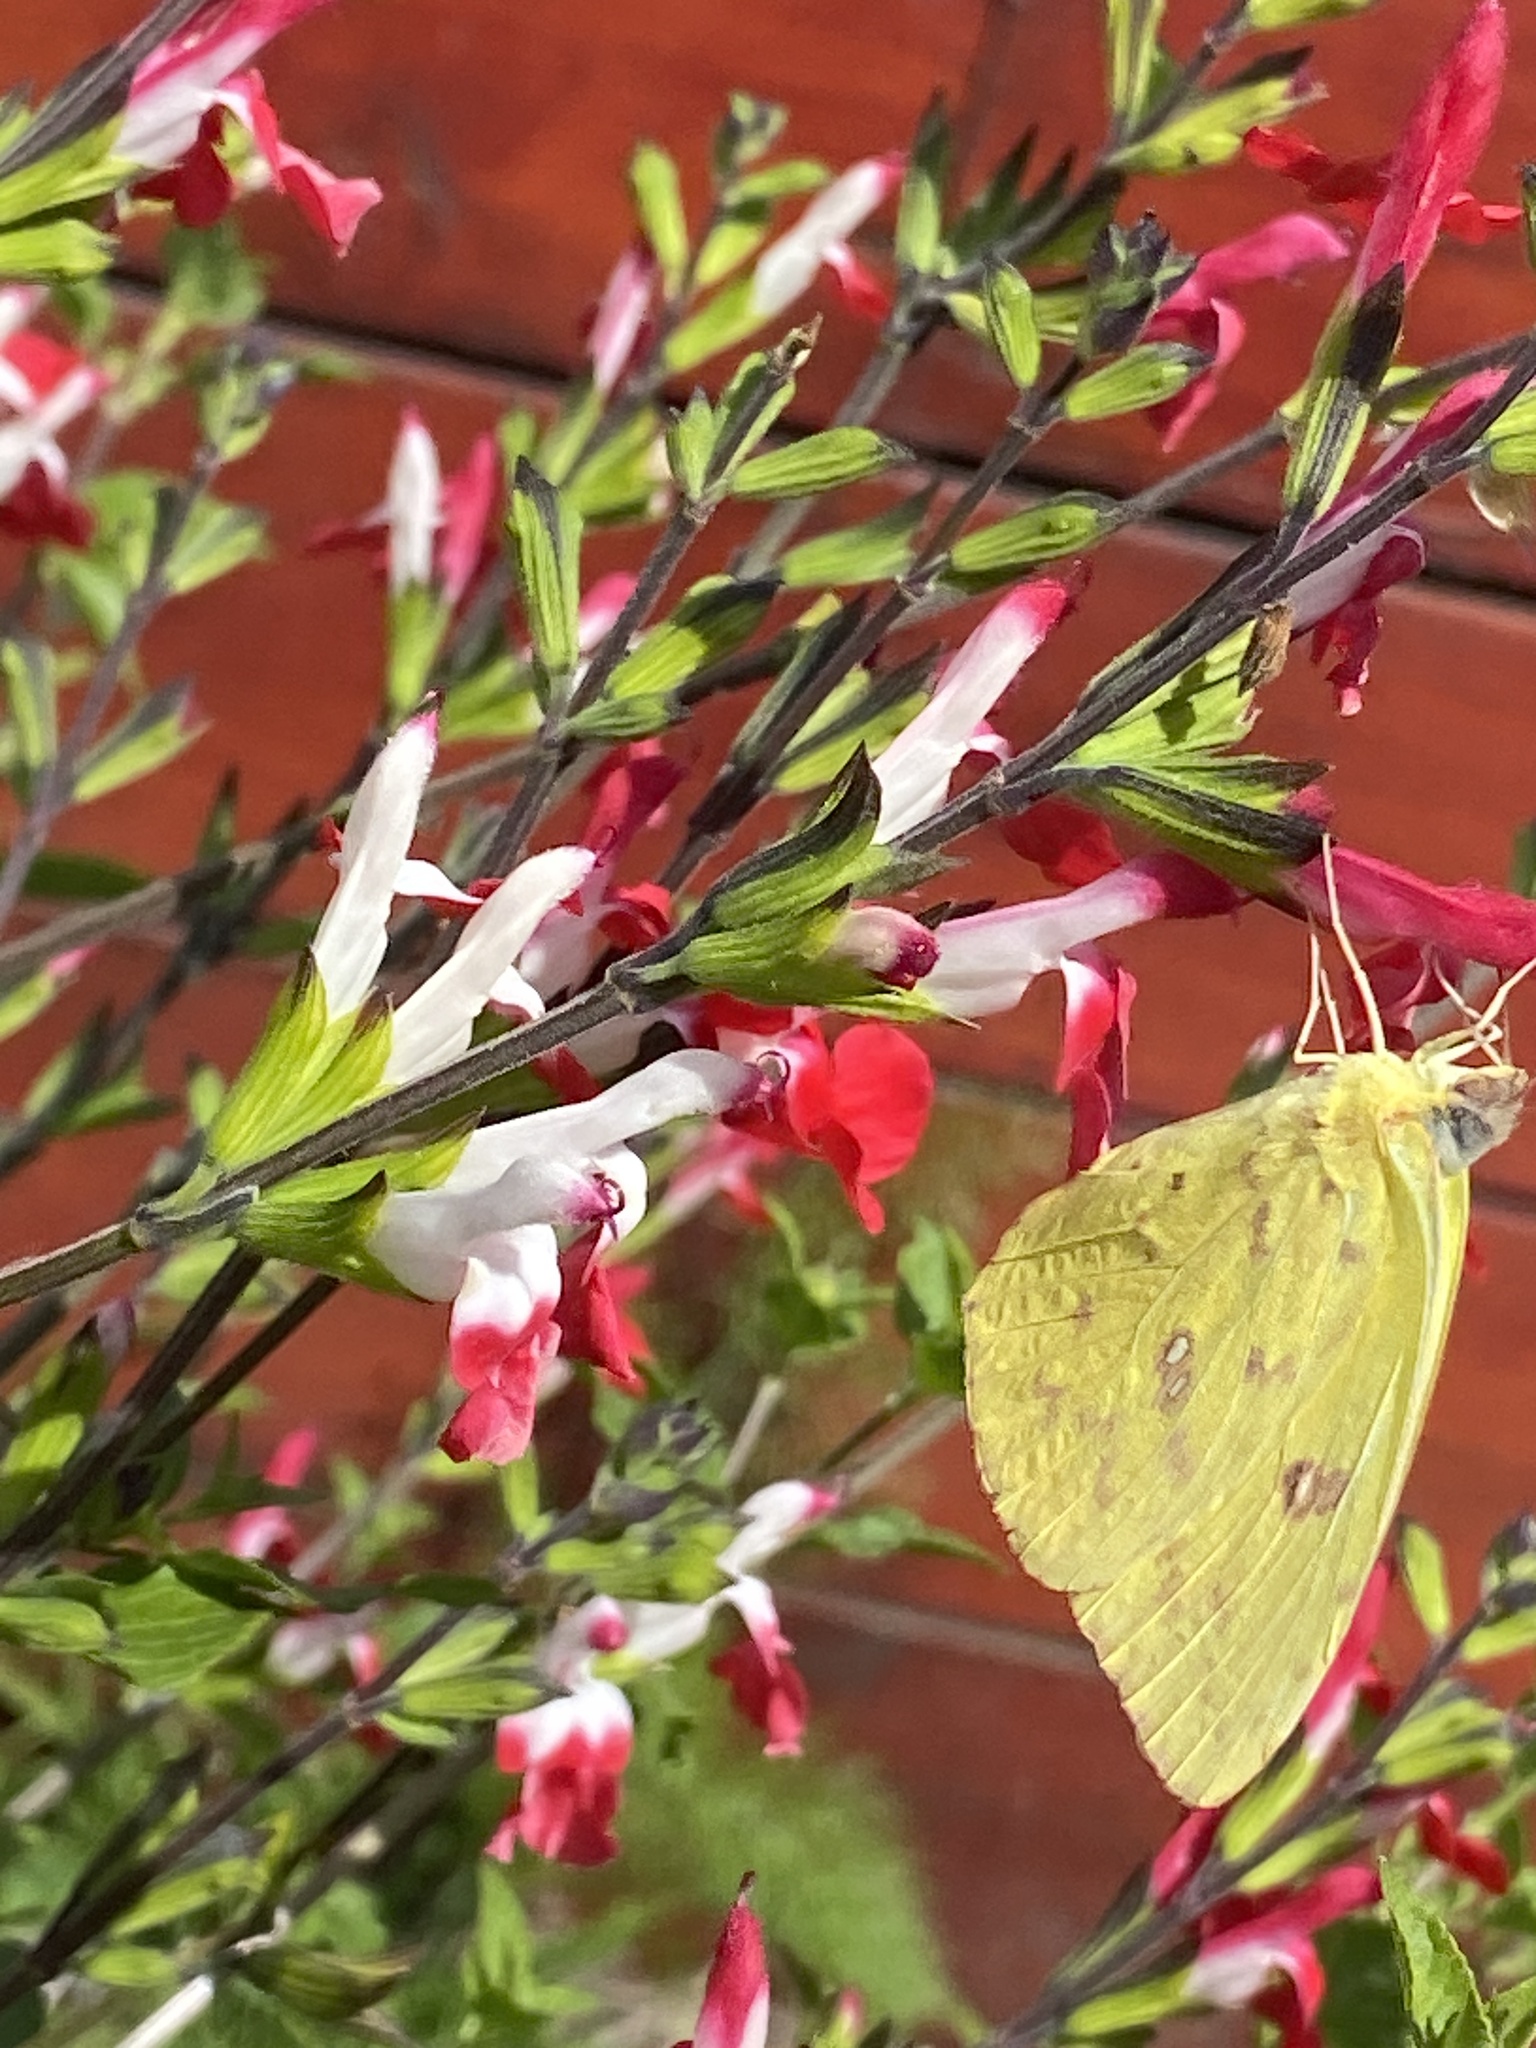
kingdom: Animalia
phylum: Arthropoda
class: Insecta
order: Lepidoptera
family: Pieridae
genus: Phoebis
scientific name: Phoebis sennae
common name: Cloudless sulphur
